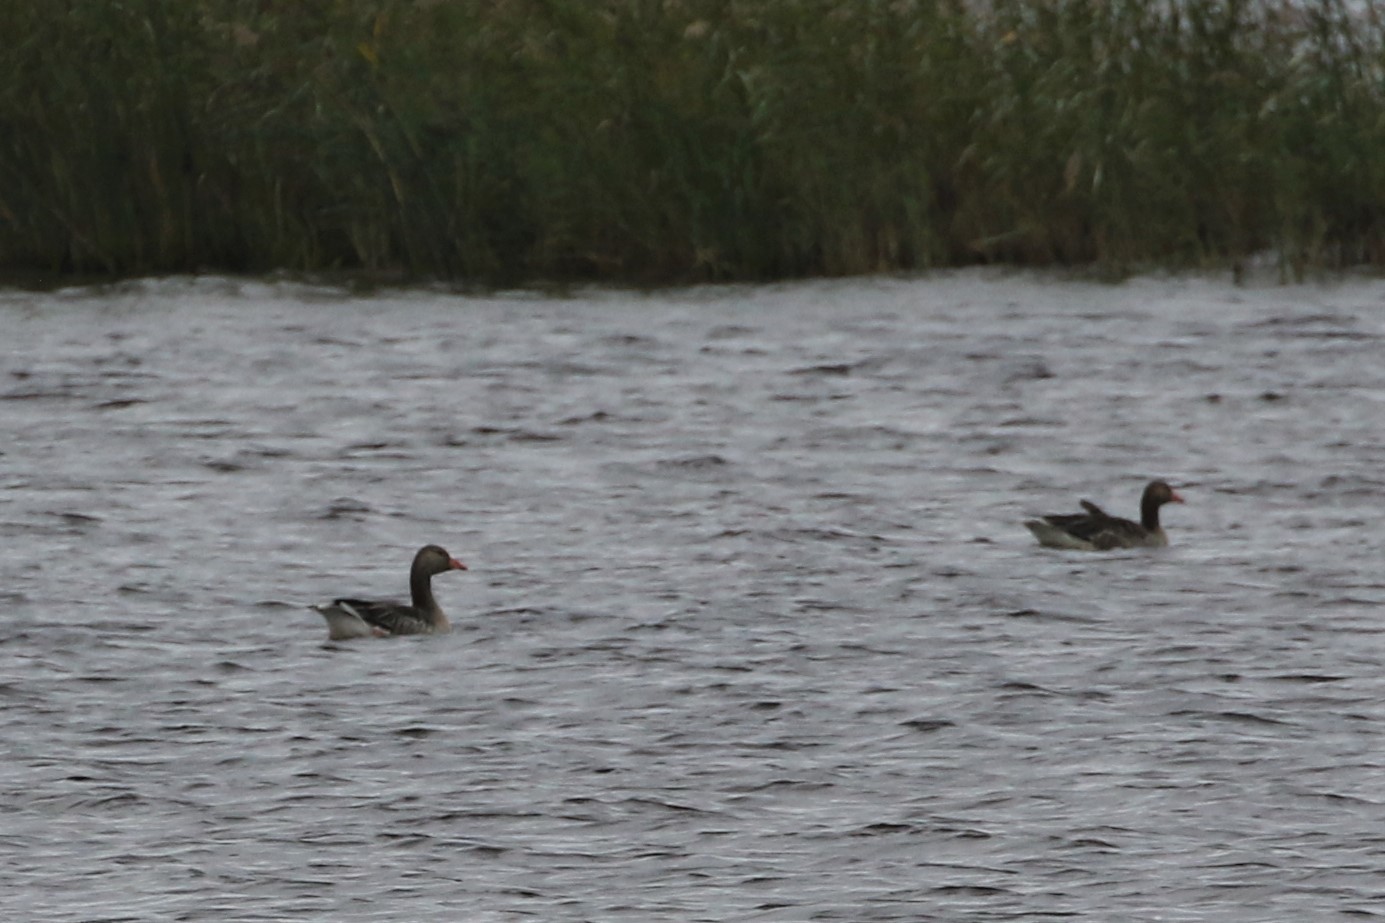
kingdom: Animalia
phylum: Chordata
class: Aves
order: Anseriformes
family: Anatidae
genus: Anser
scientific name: Anser anser
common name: Greylag goose
